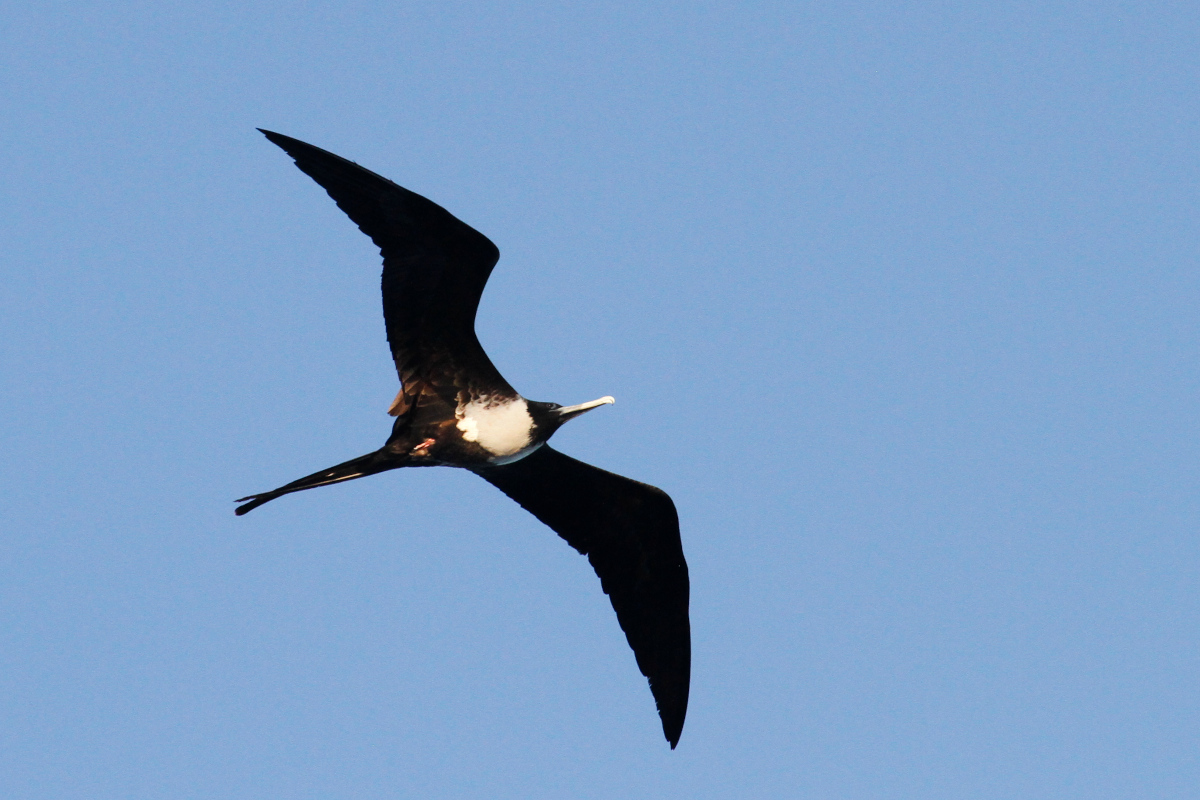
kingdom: Animalia
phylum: Chordata
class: Aves
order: Suliformes
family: Fregatidae
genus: Fregata
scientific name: Fregata magnificens
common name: Magnificent frigatebird
